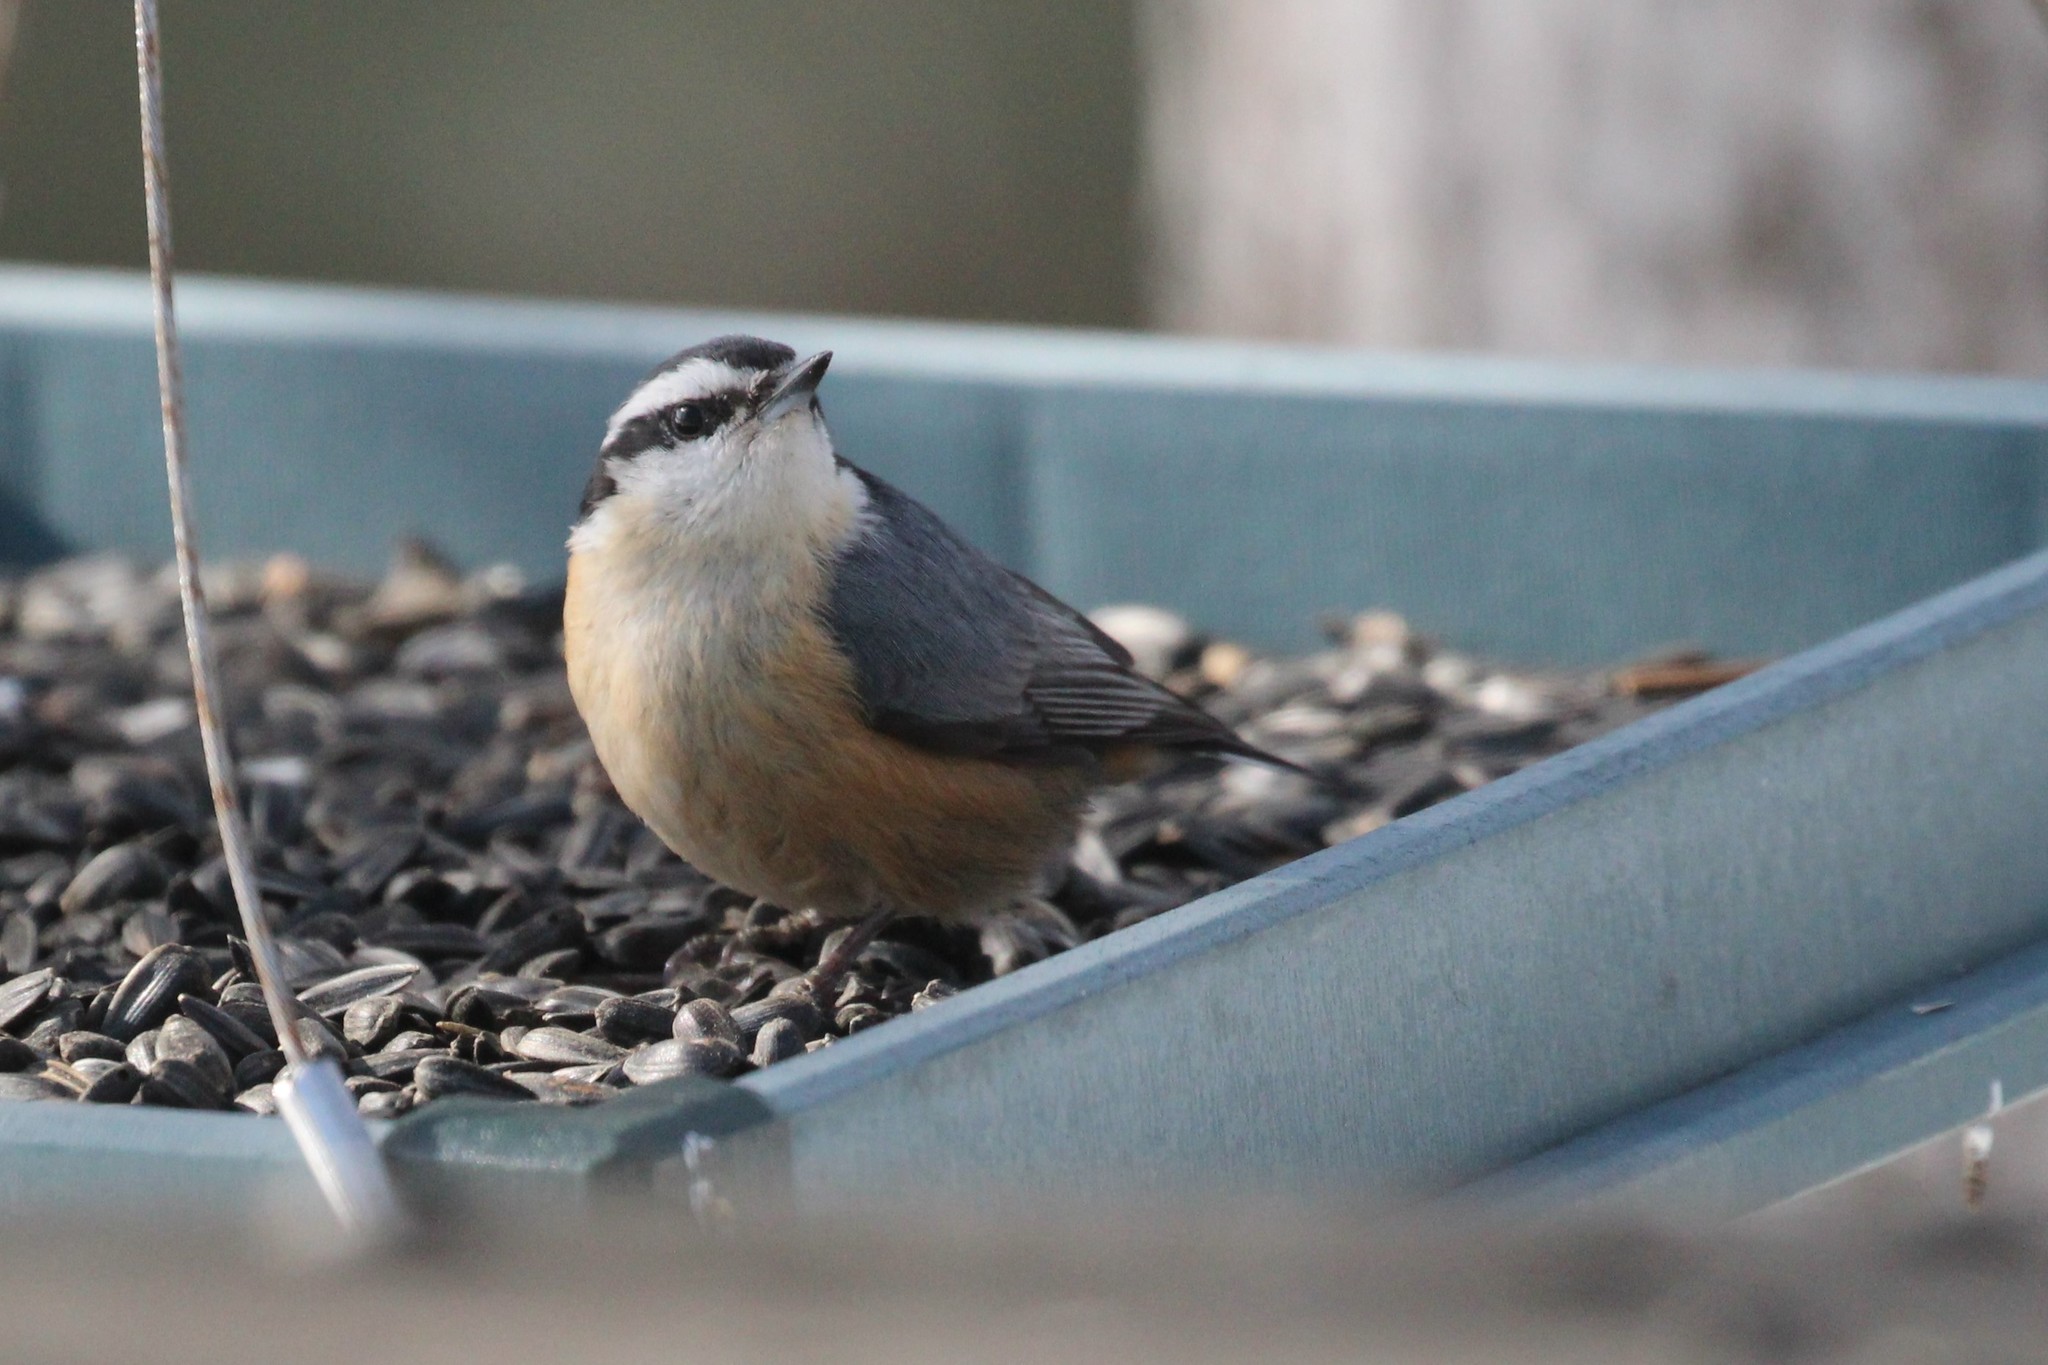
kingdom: Animalia
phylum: Chordata
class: Aves
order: Passeriformes
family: Sittidae
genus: Sitta
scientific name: Sitta canadensis
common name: Red-breasted nuthatch
